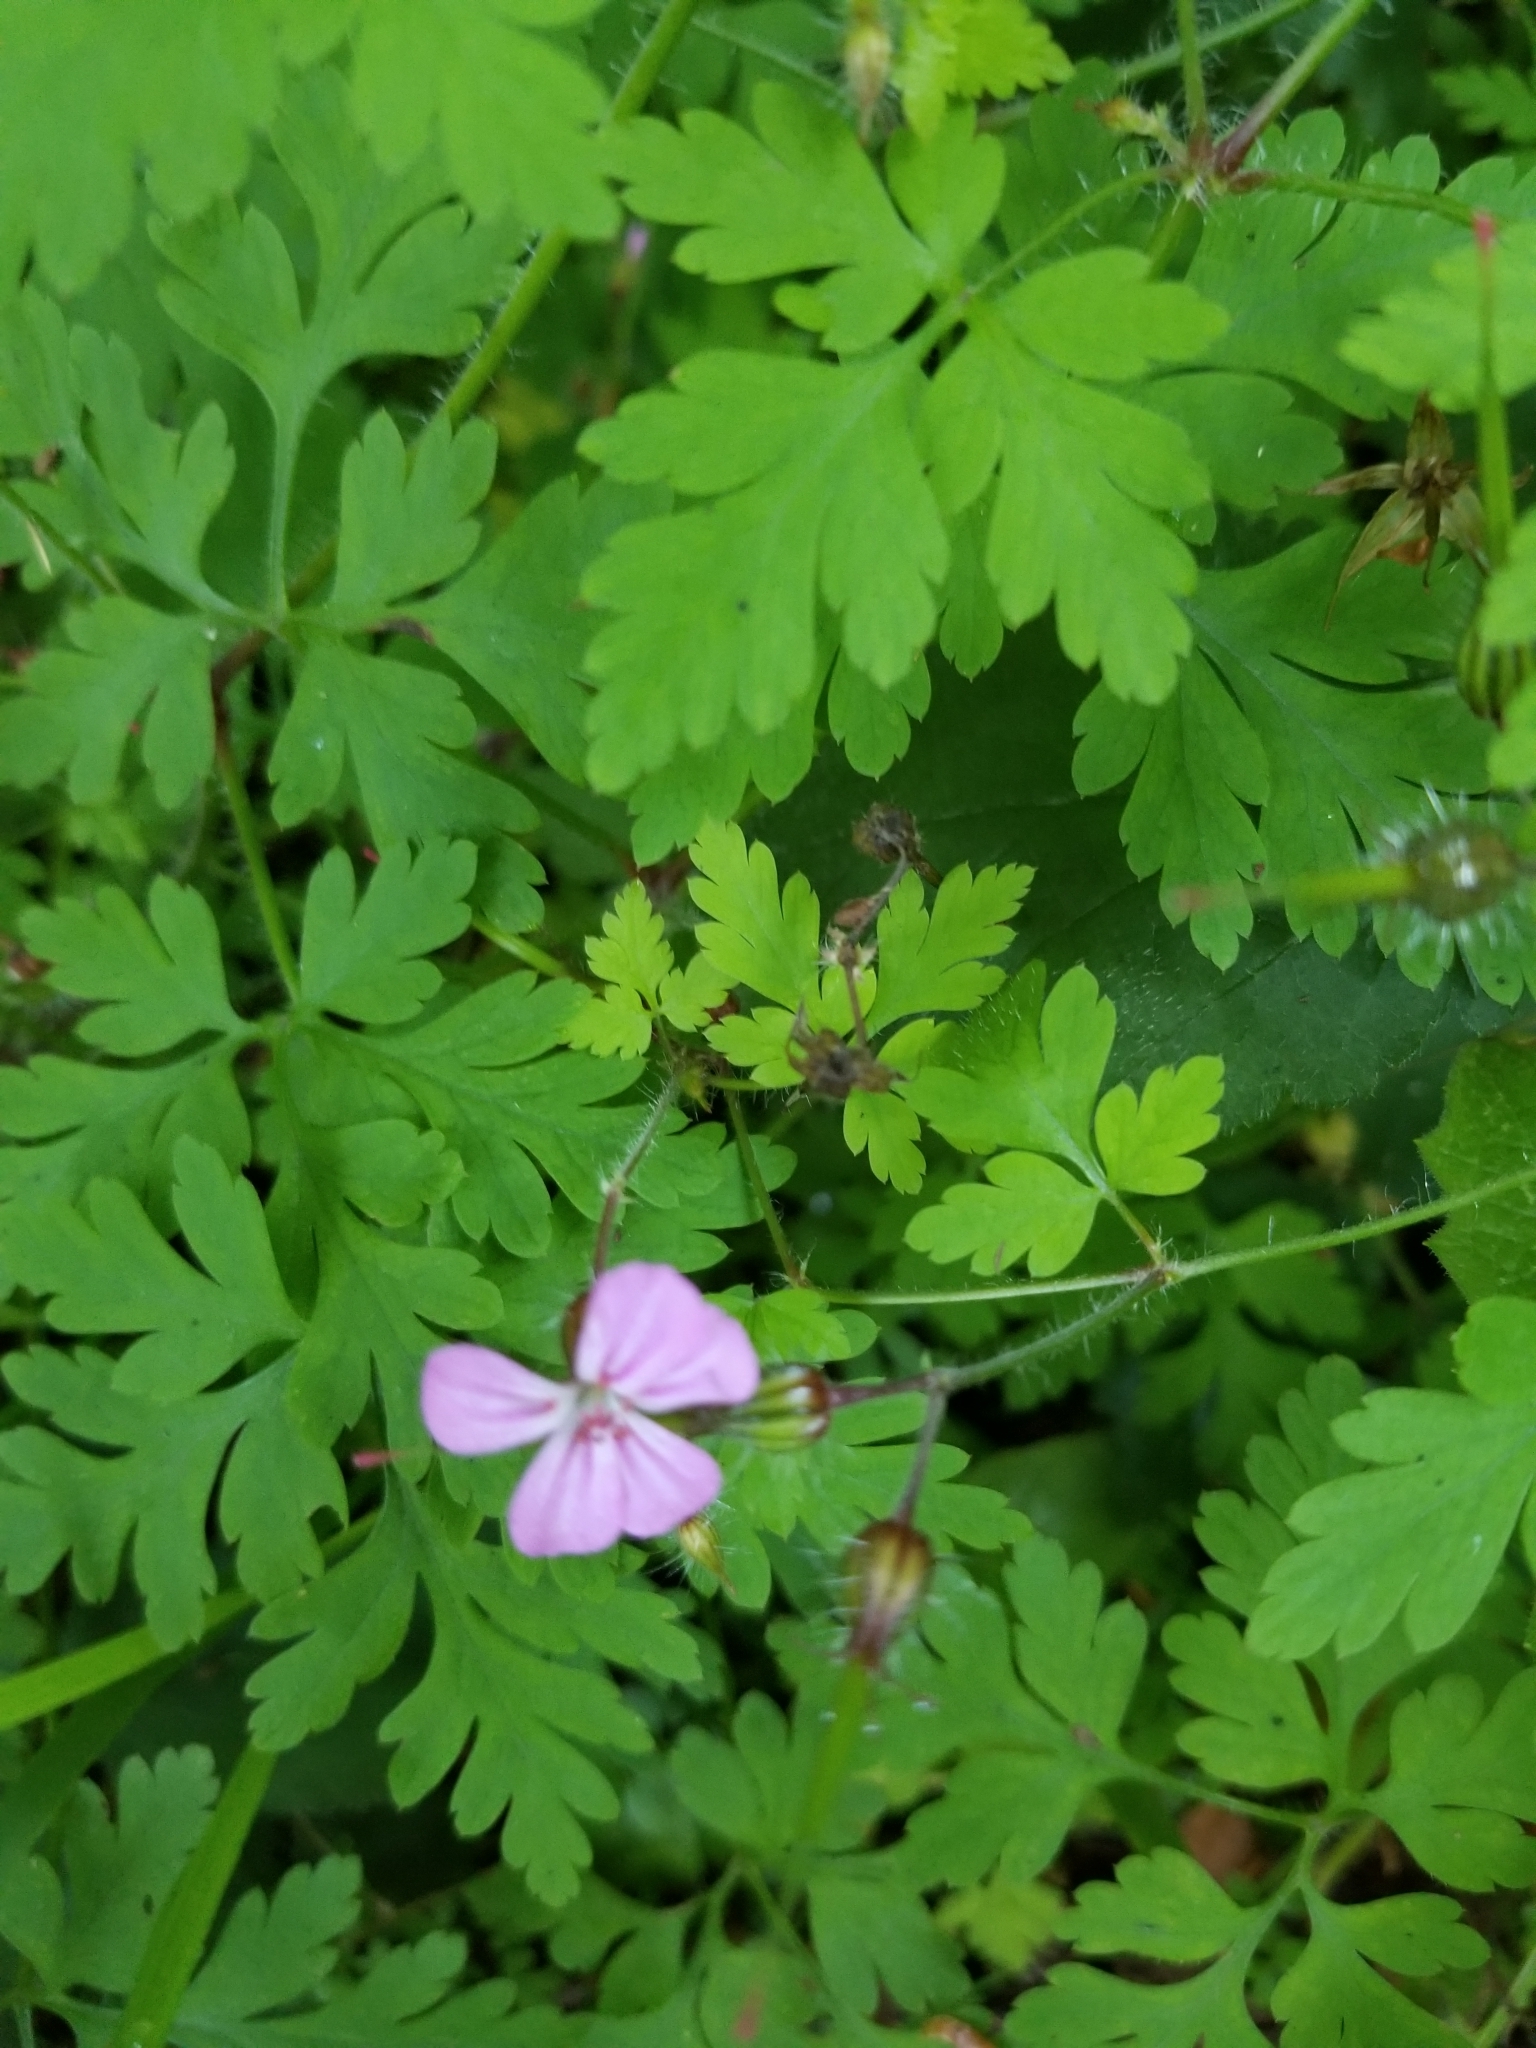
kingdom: Plantae
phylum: Tracheophyta
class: Magnoliopsida
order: Geraniales
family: Geraniaceae
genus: Geranium
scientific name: Geranium robertianum
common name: Herb-robert
